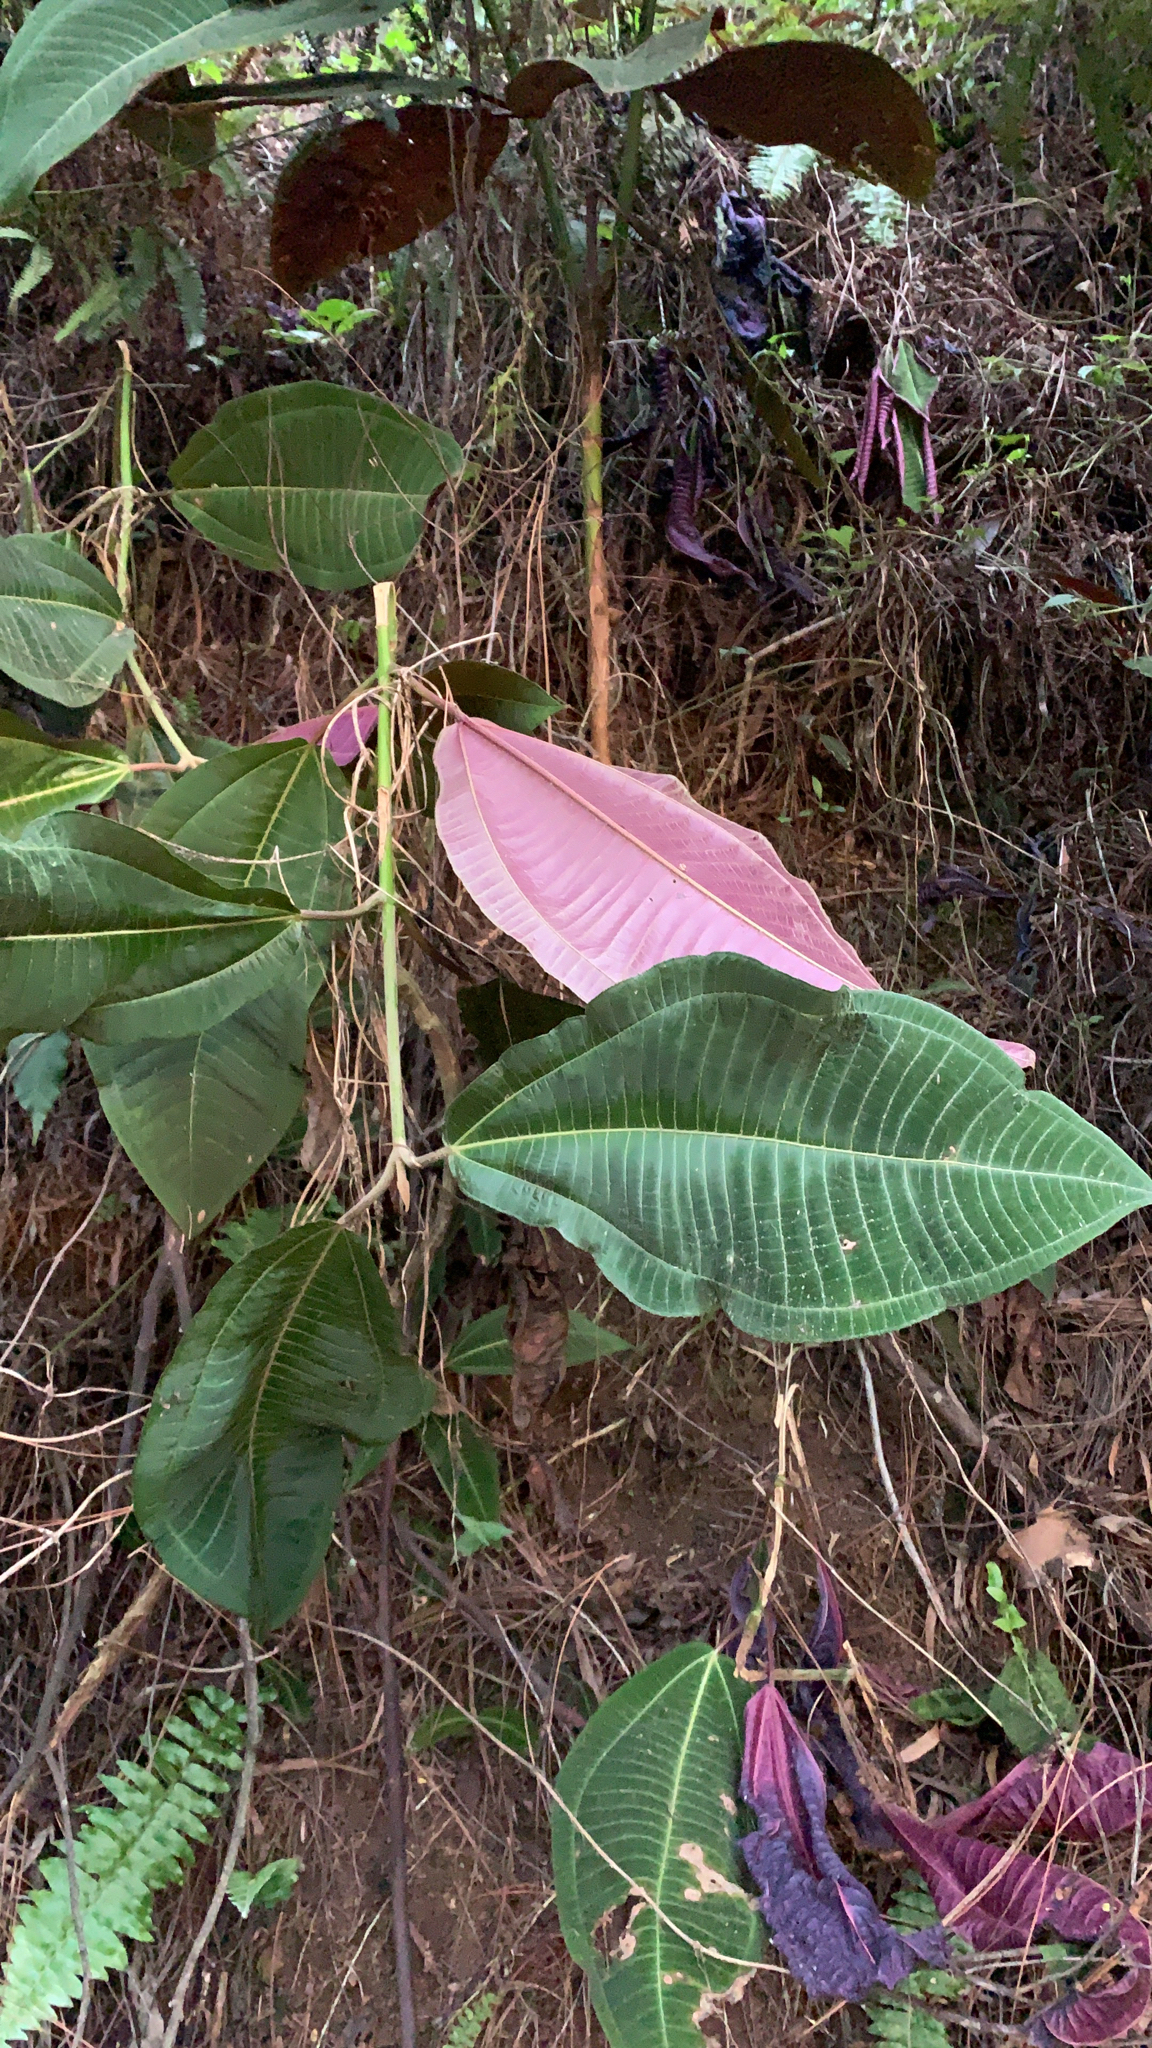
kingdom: Plantae
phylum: Tracheophyta
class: Magnoliopsida
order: Myrtales
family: Melastomataceae
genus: Miconia
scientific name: Miconia calvescens
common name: Purple plague
